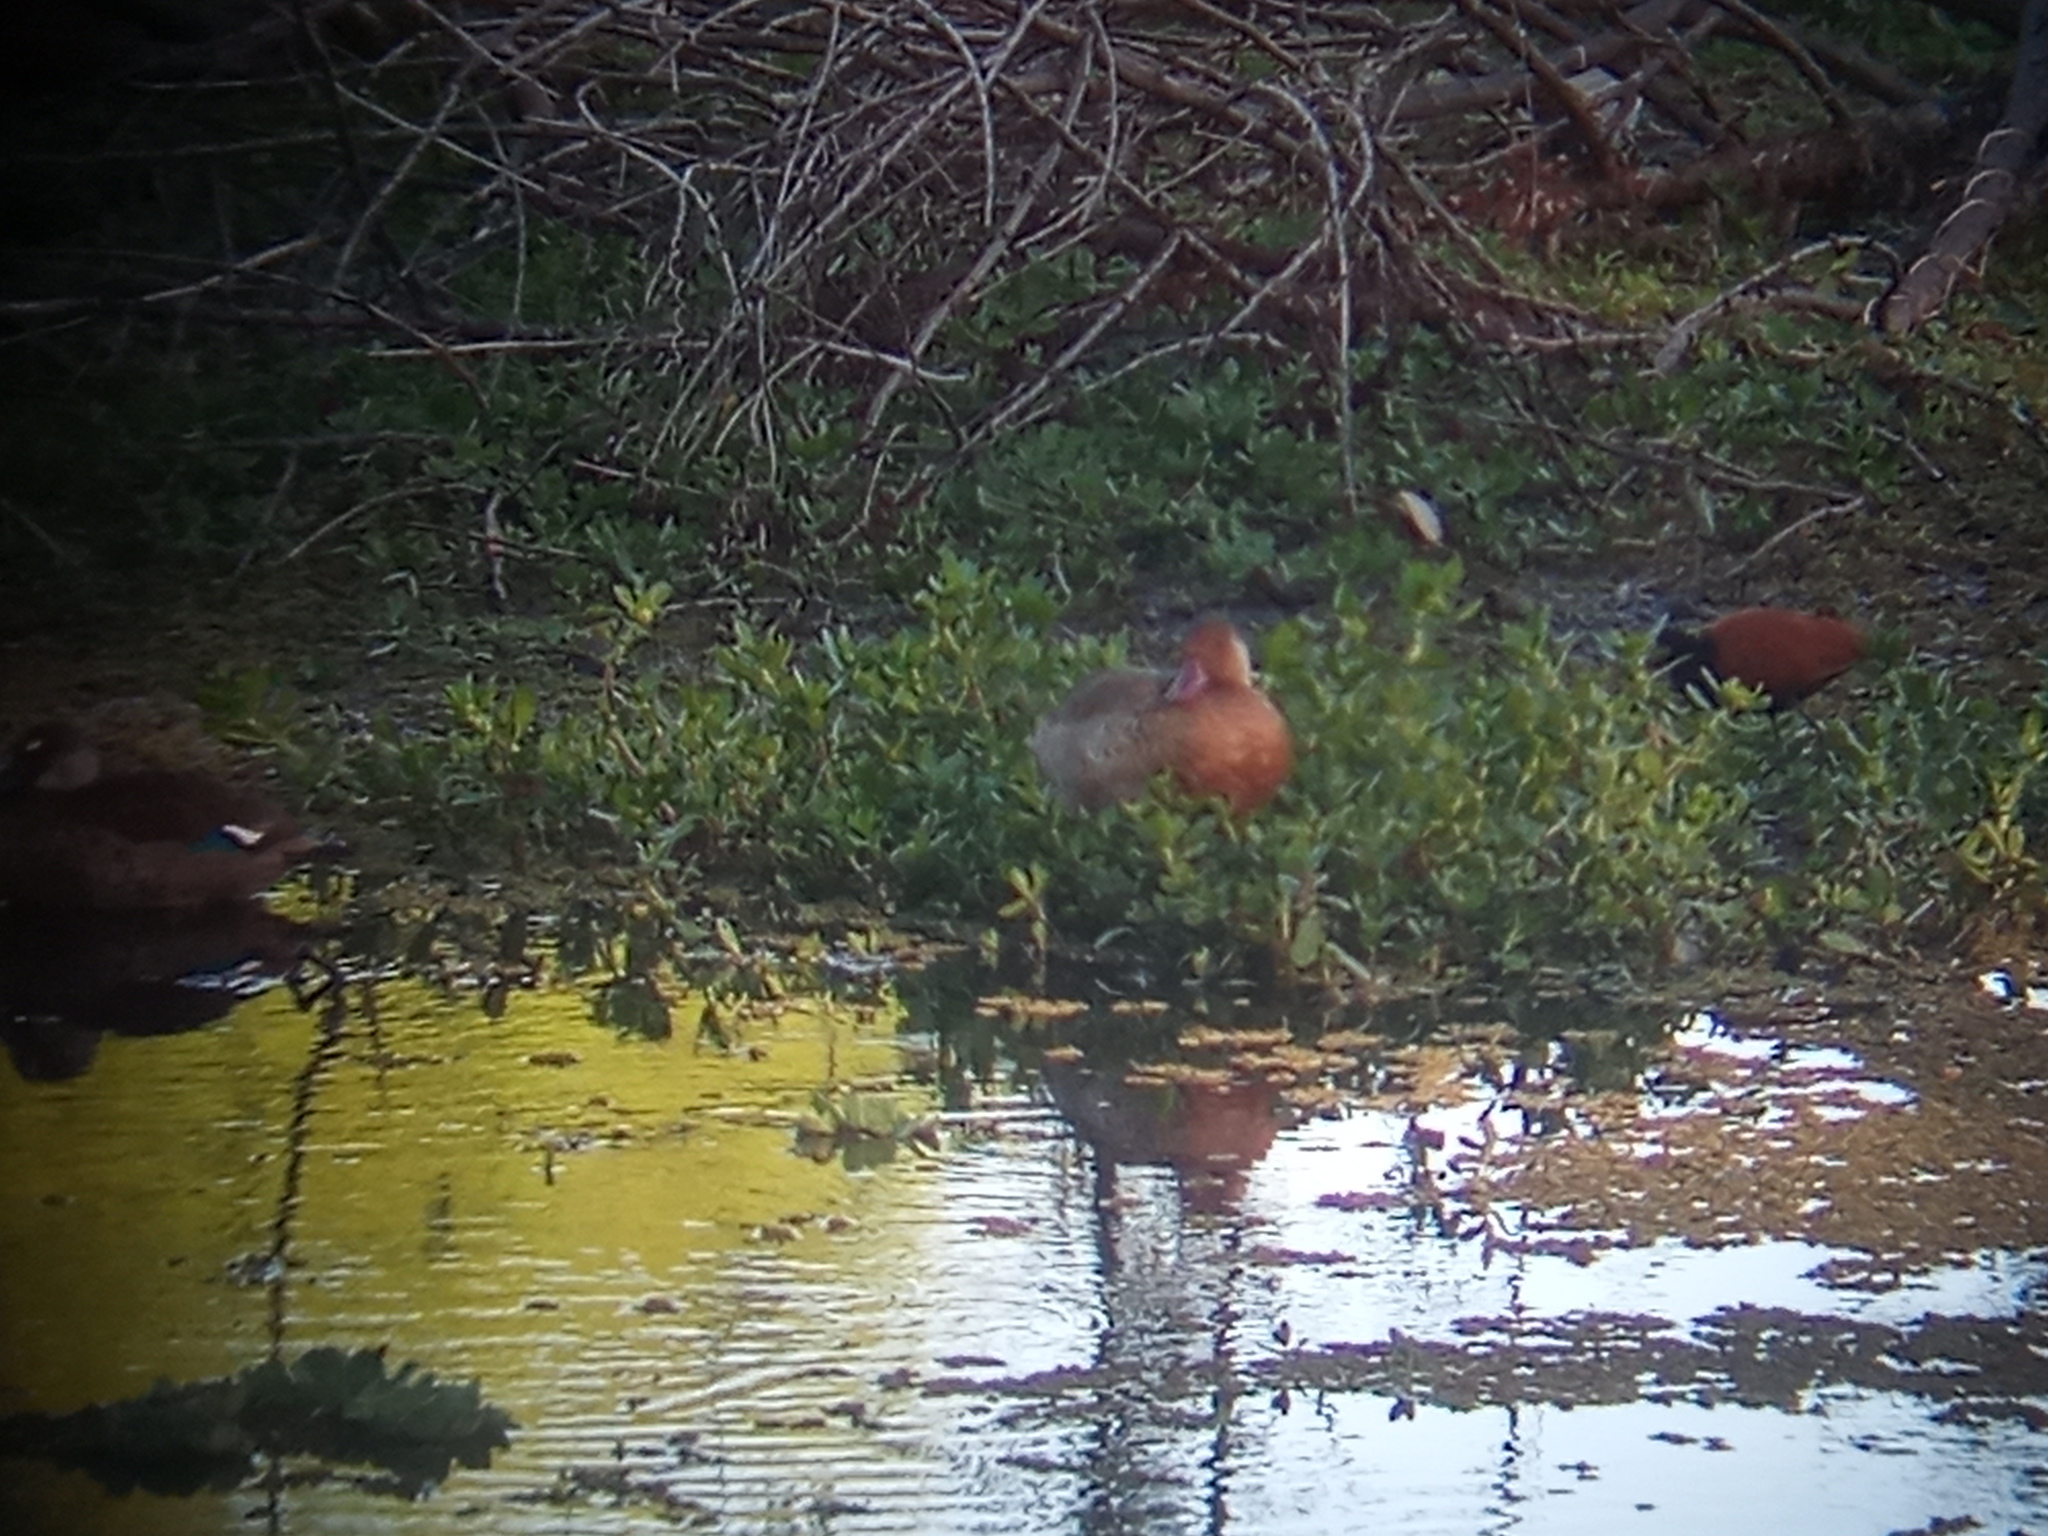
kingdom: Animalia
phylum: Chordata
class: Aves
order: Anseriformes
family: Anatidae
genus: Amazonetta
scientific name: Amazonetta brasiliensis
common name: Brazilian teal
